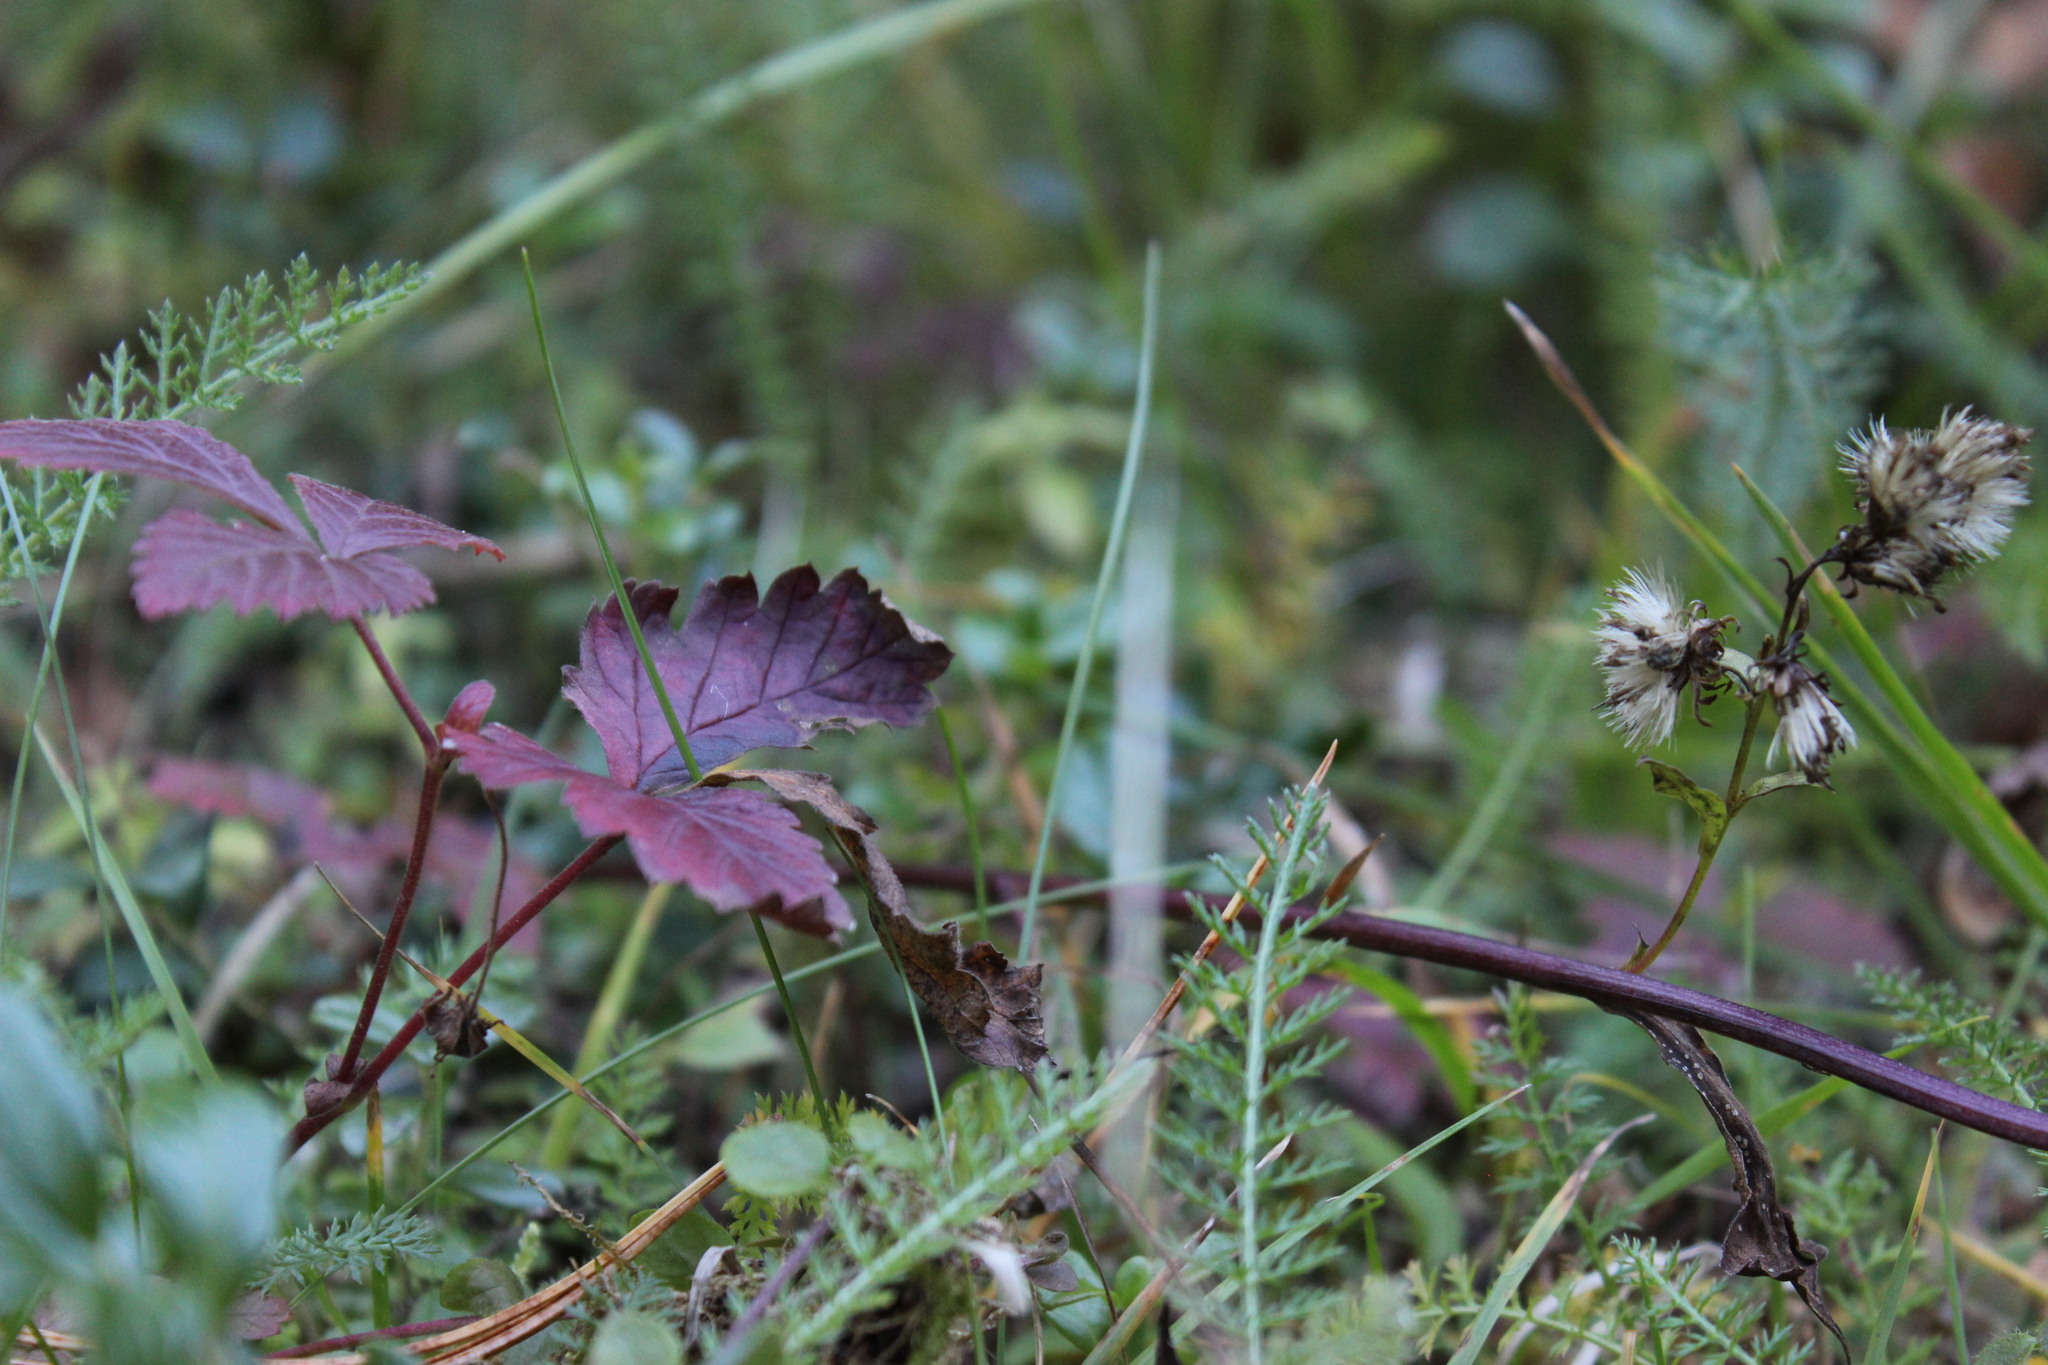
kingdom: Plantae
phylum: Tracheophyta
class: Magnoliopsida
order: Rosales
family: Rosaceae
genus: Rubus
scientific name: Rubus arcticus
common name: Arctic bramble
